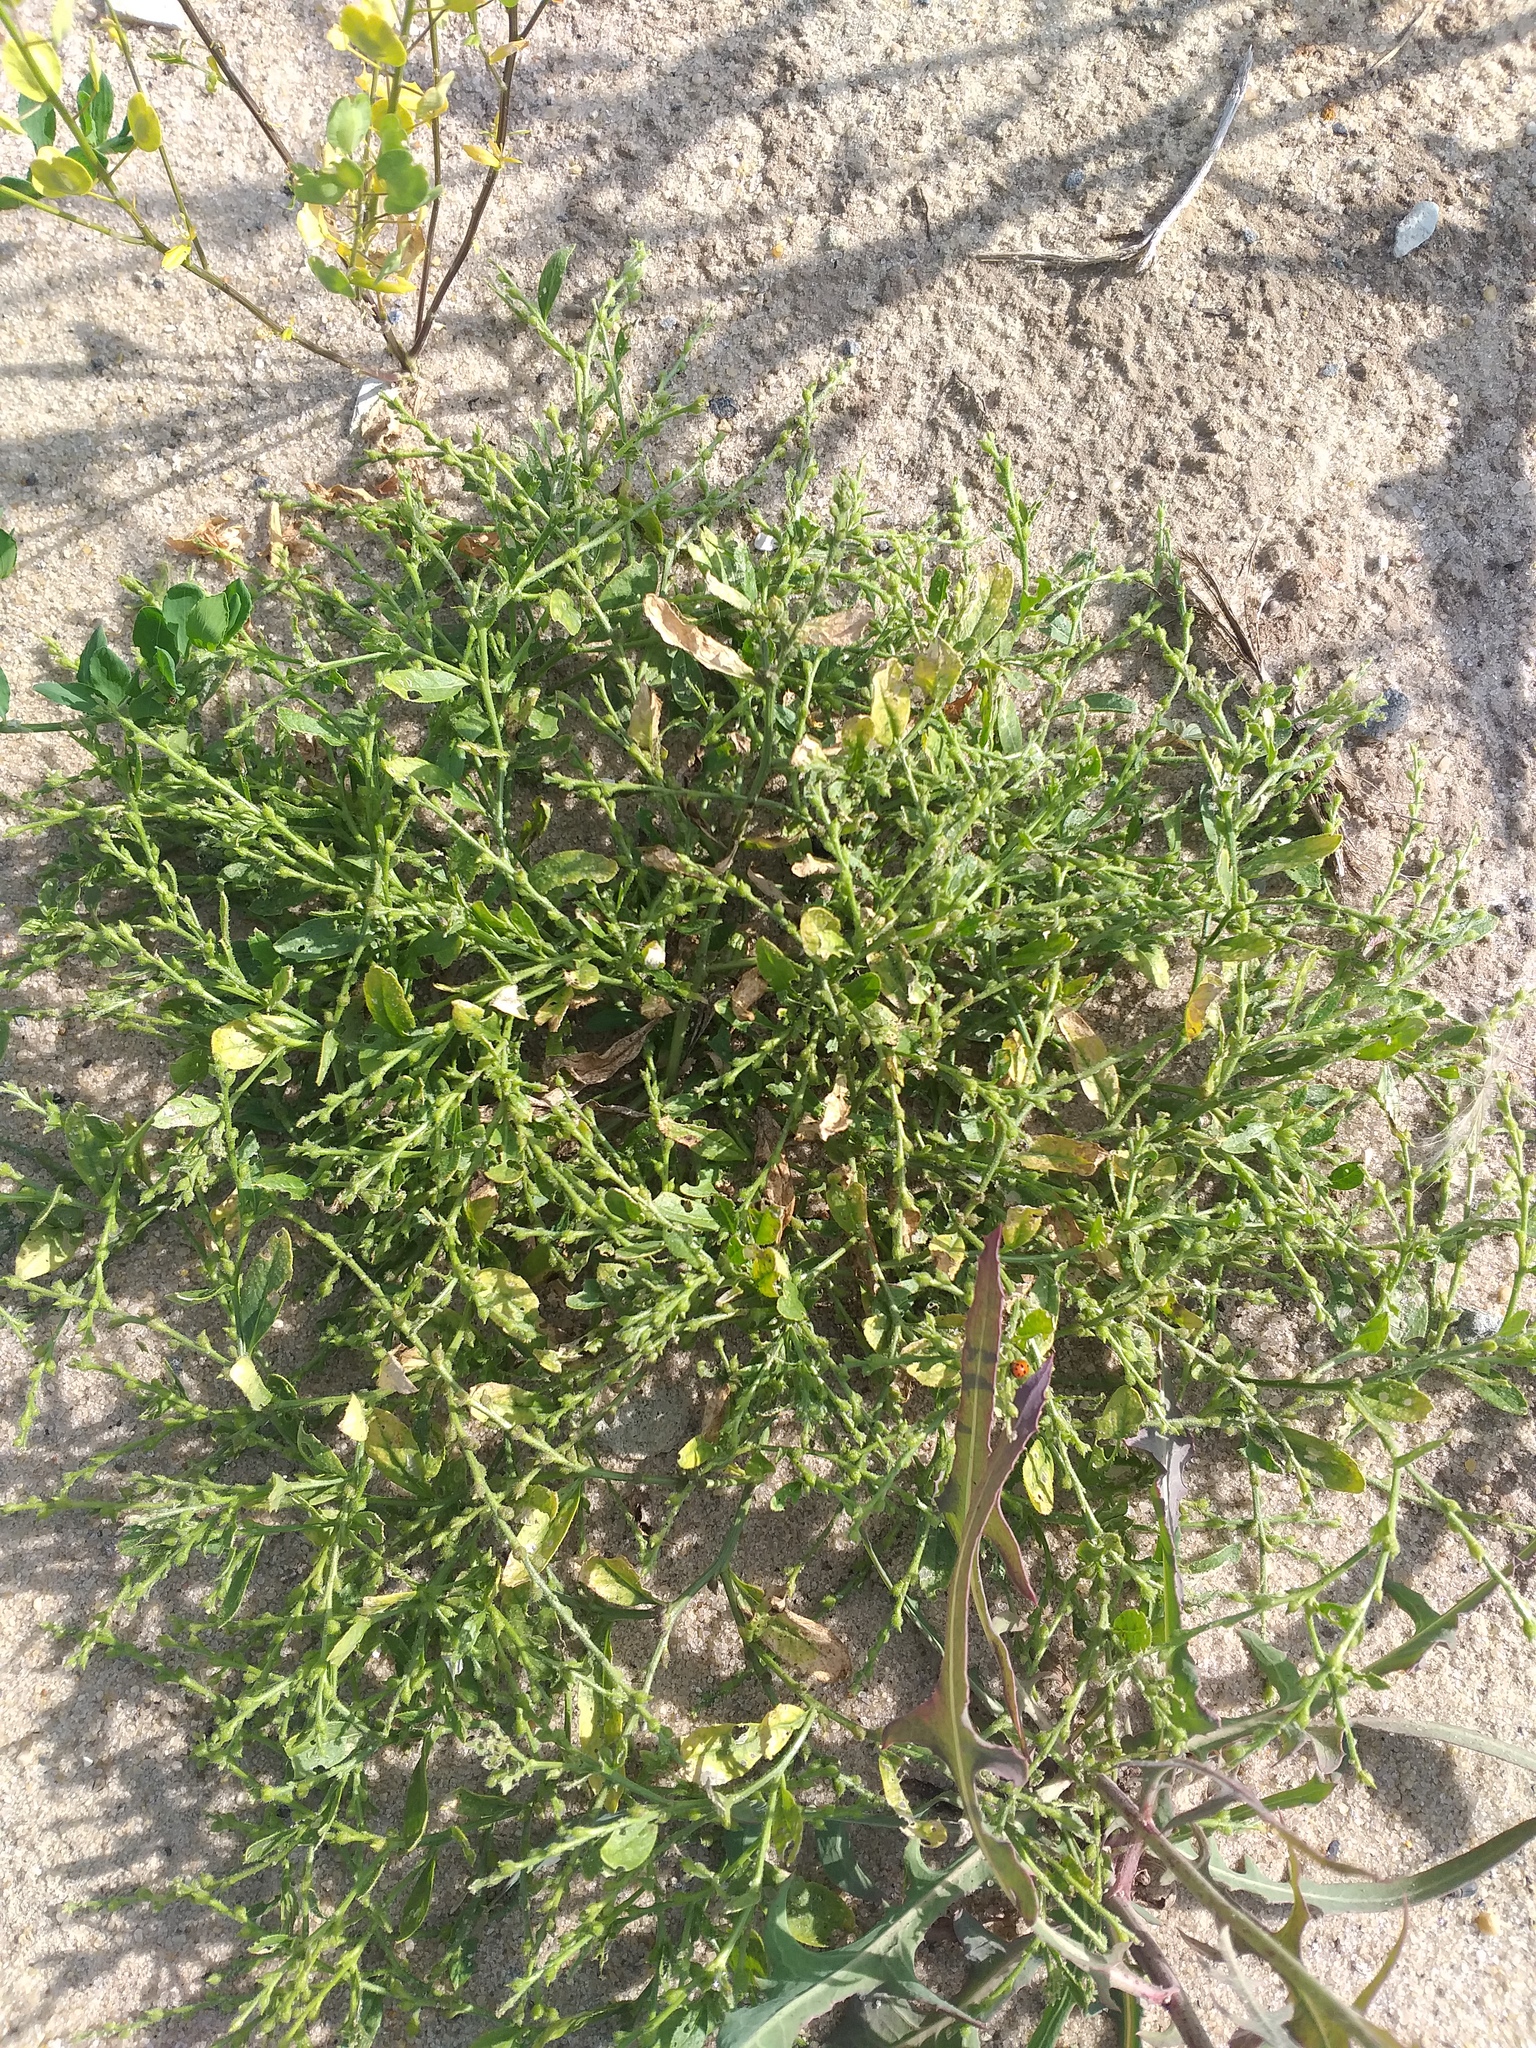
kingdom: Plantae
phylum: Tracheophyta
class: Magnoliopsida
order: Brassicales
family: Brassicaceae
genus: Euclidium
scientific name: Euclidium syriacum
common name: Syrian mustard
